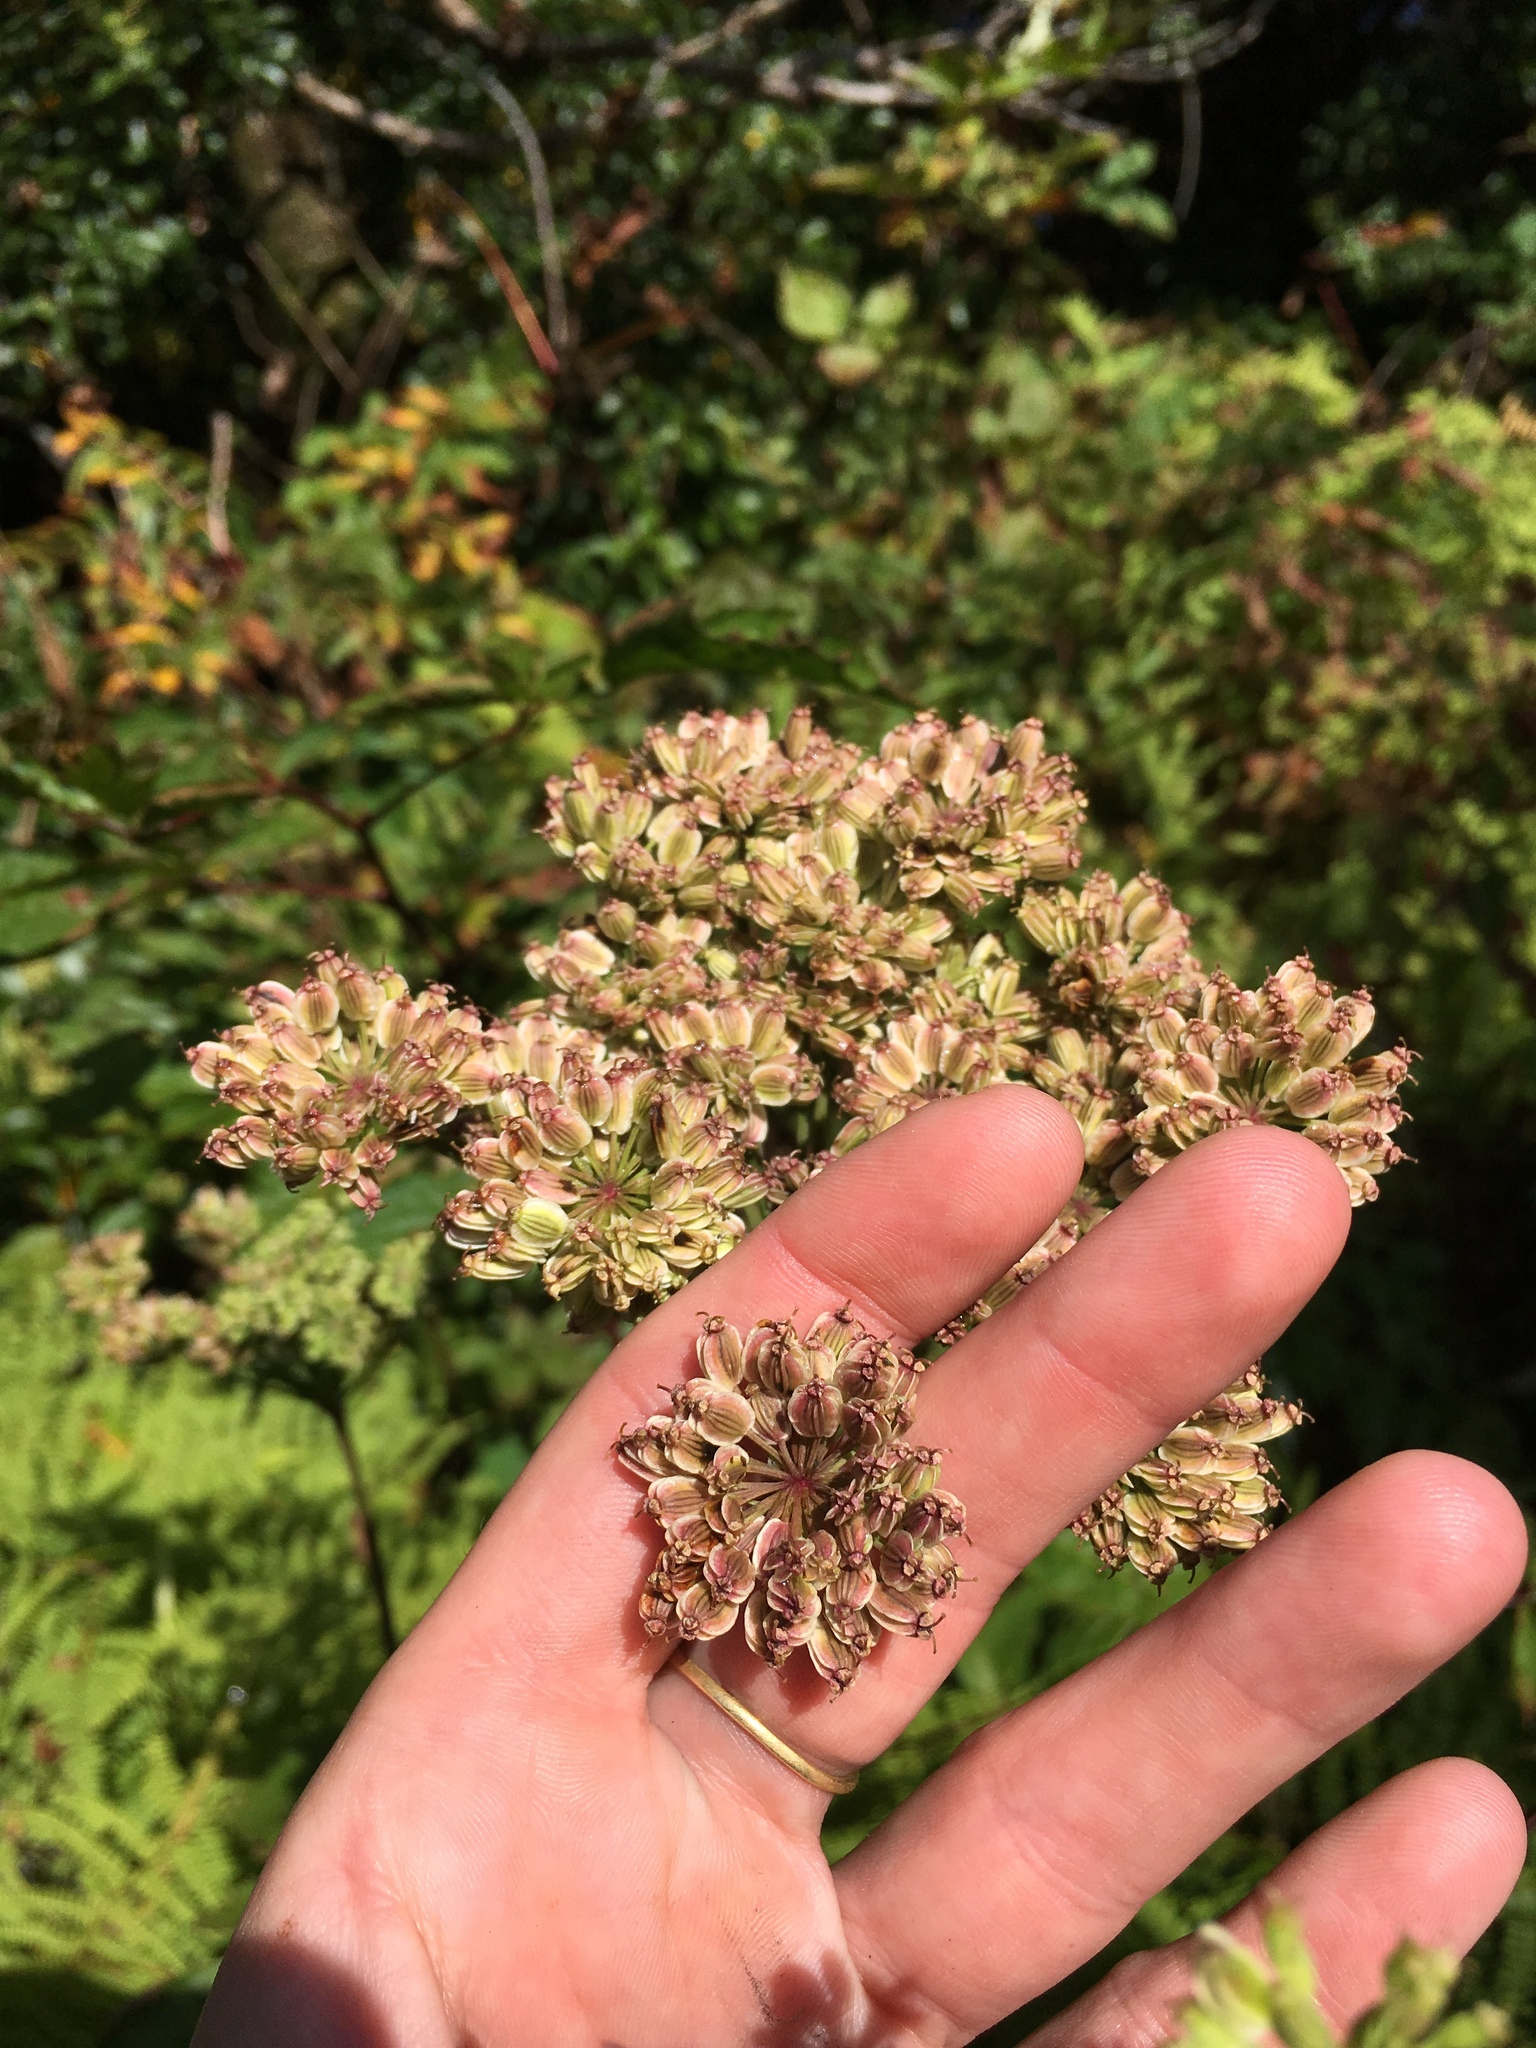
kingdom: Plantae
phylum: Tracheophyta
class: Magnoliopsida
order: Apiales
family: Apiaceae
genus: Angelica
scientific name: Angelica triquinata
